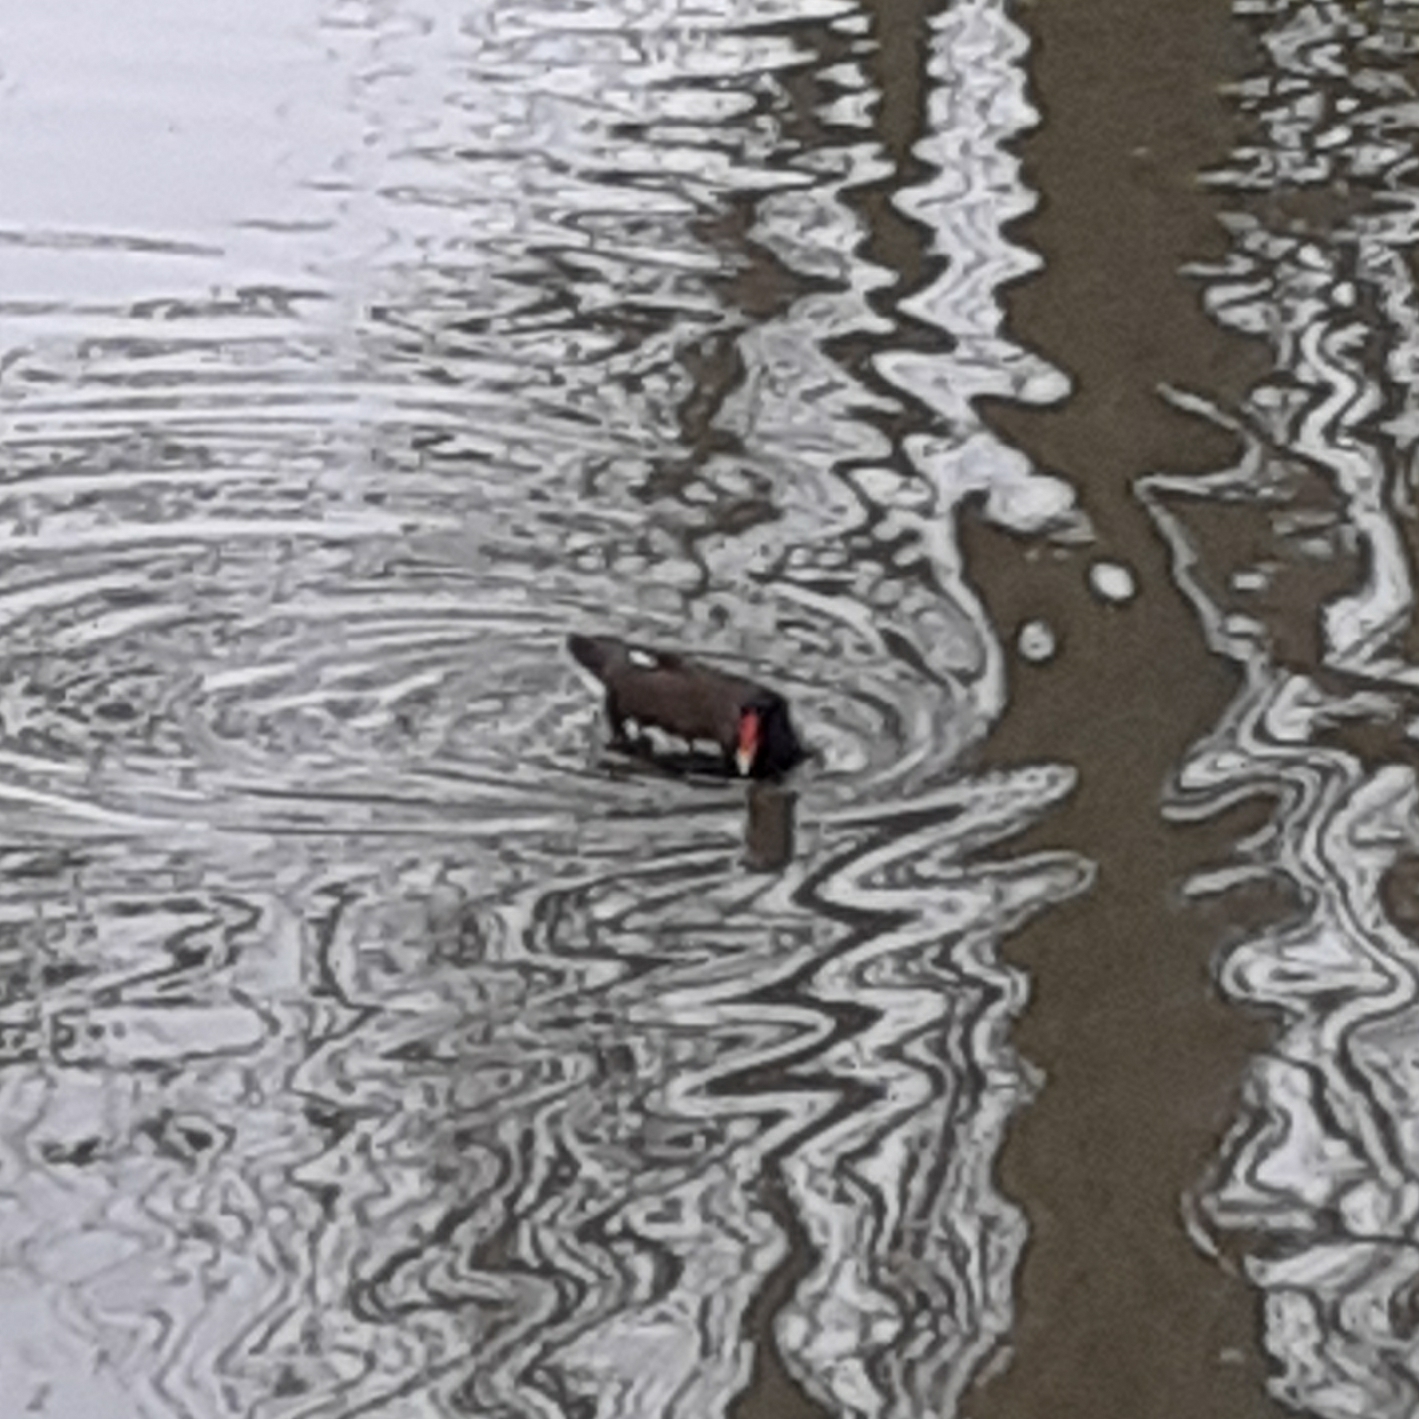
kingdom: Animalia
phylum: Chordata
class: Aves
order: Gruiformes
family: Rallidae
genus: Gallinula
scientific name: Gallinula chloropus
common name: Common moorhen
